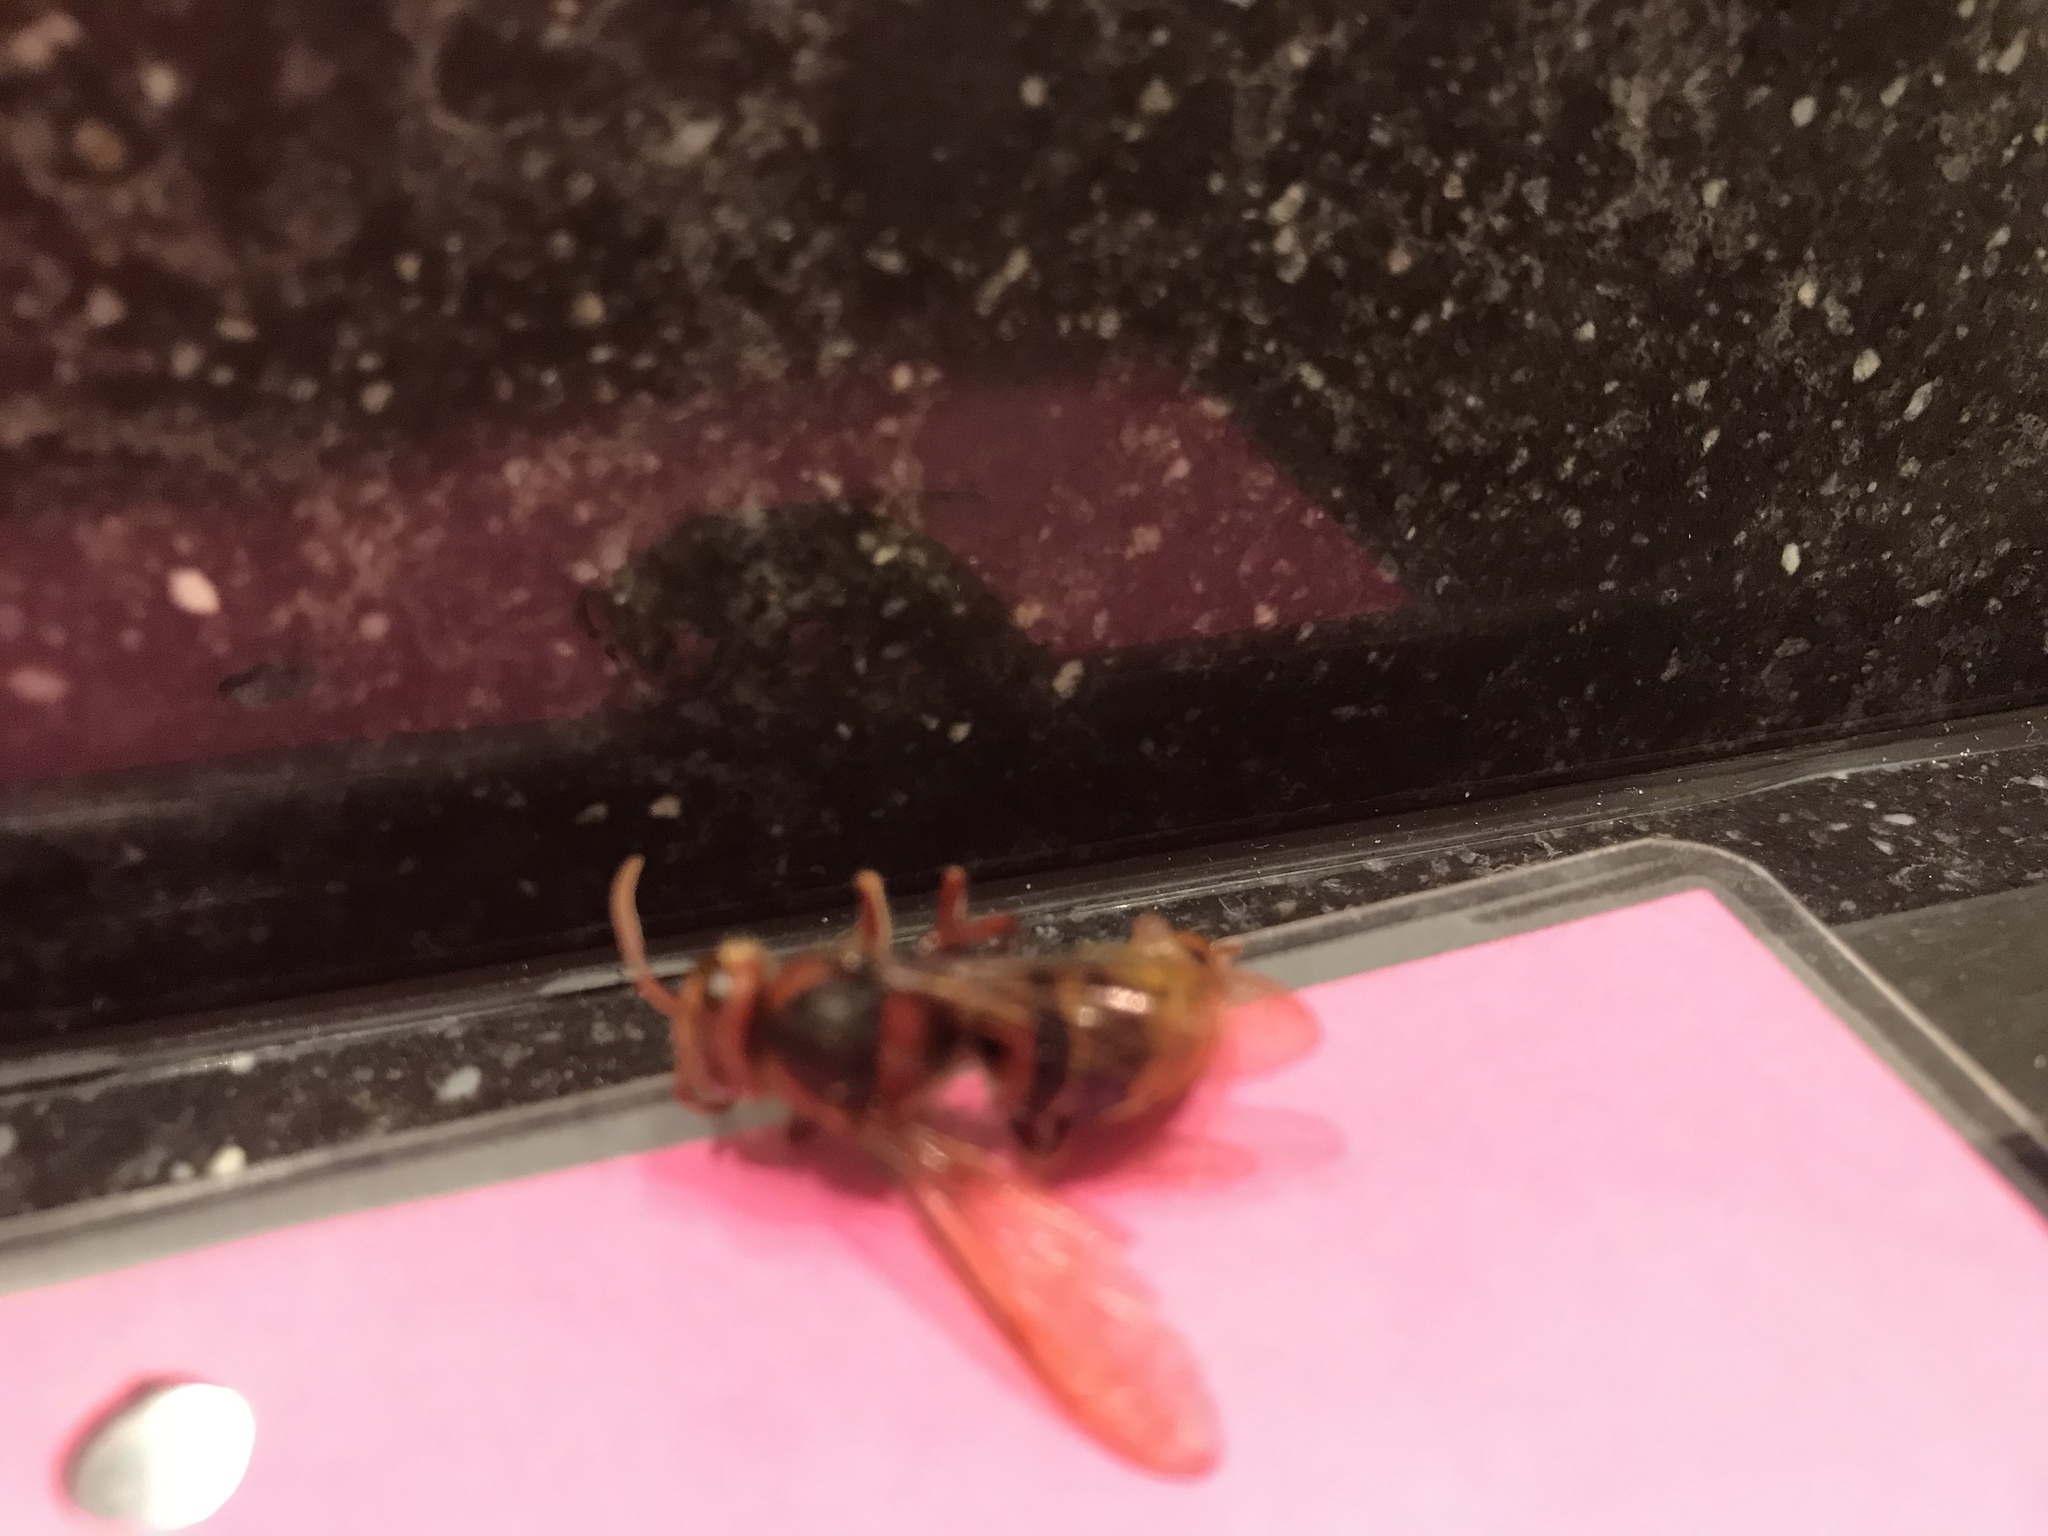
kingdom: Animalia
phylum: Arthropoda
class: Insecta
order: Hymenoptera
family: Vespidae
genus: Vespa
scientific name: Vespa crabro
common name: Hornet
